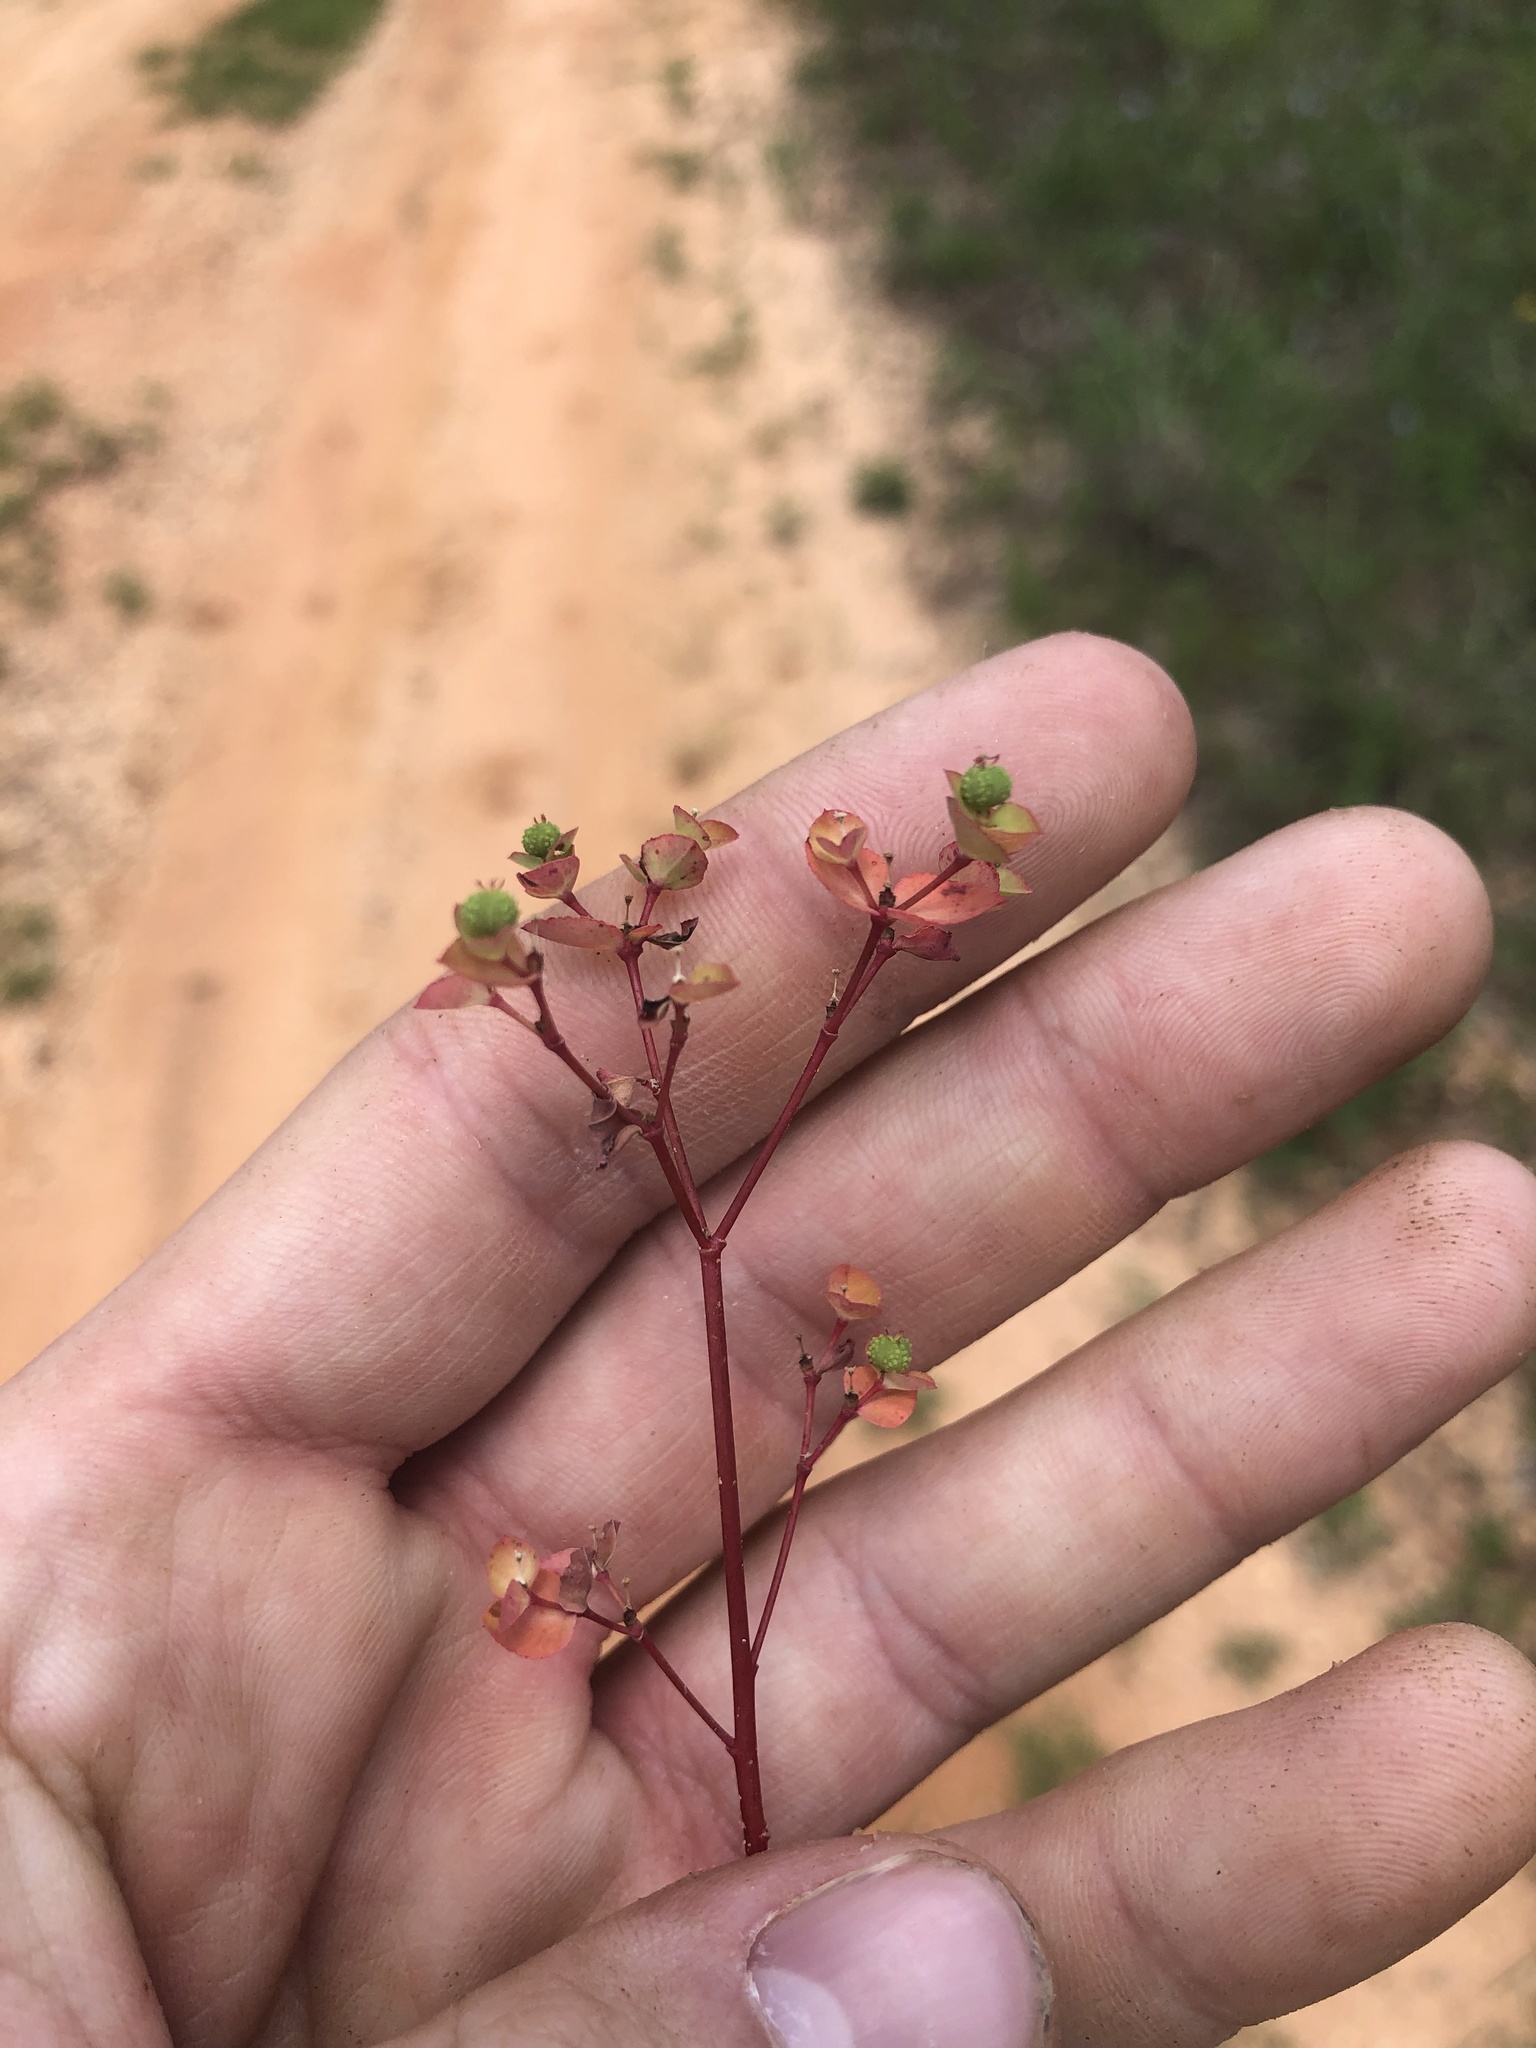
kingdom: Plantae
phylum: Tracheophyta
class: Magnoliopsida
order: Malpighiales
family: Euphorbiaceae
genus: Euphorbia
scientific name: Euphorbia spathulata
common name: Blunt spurge
